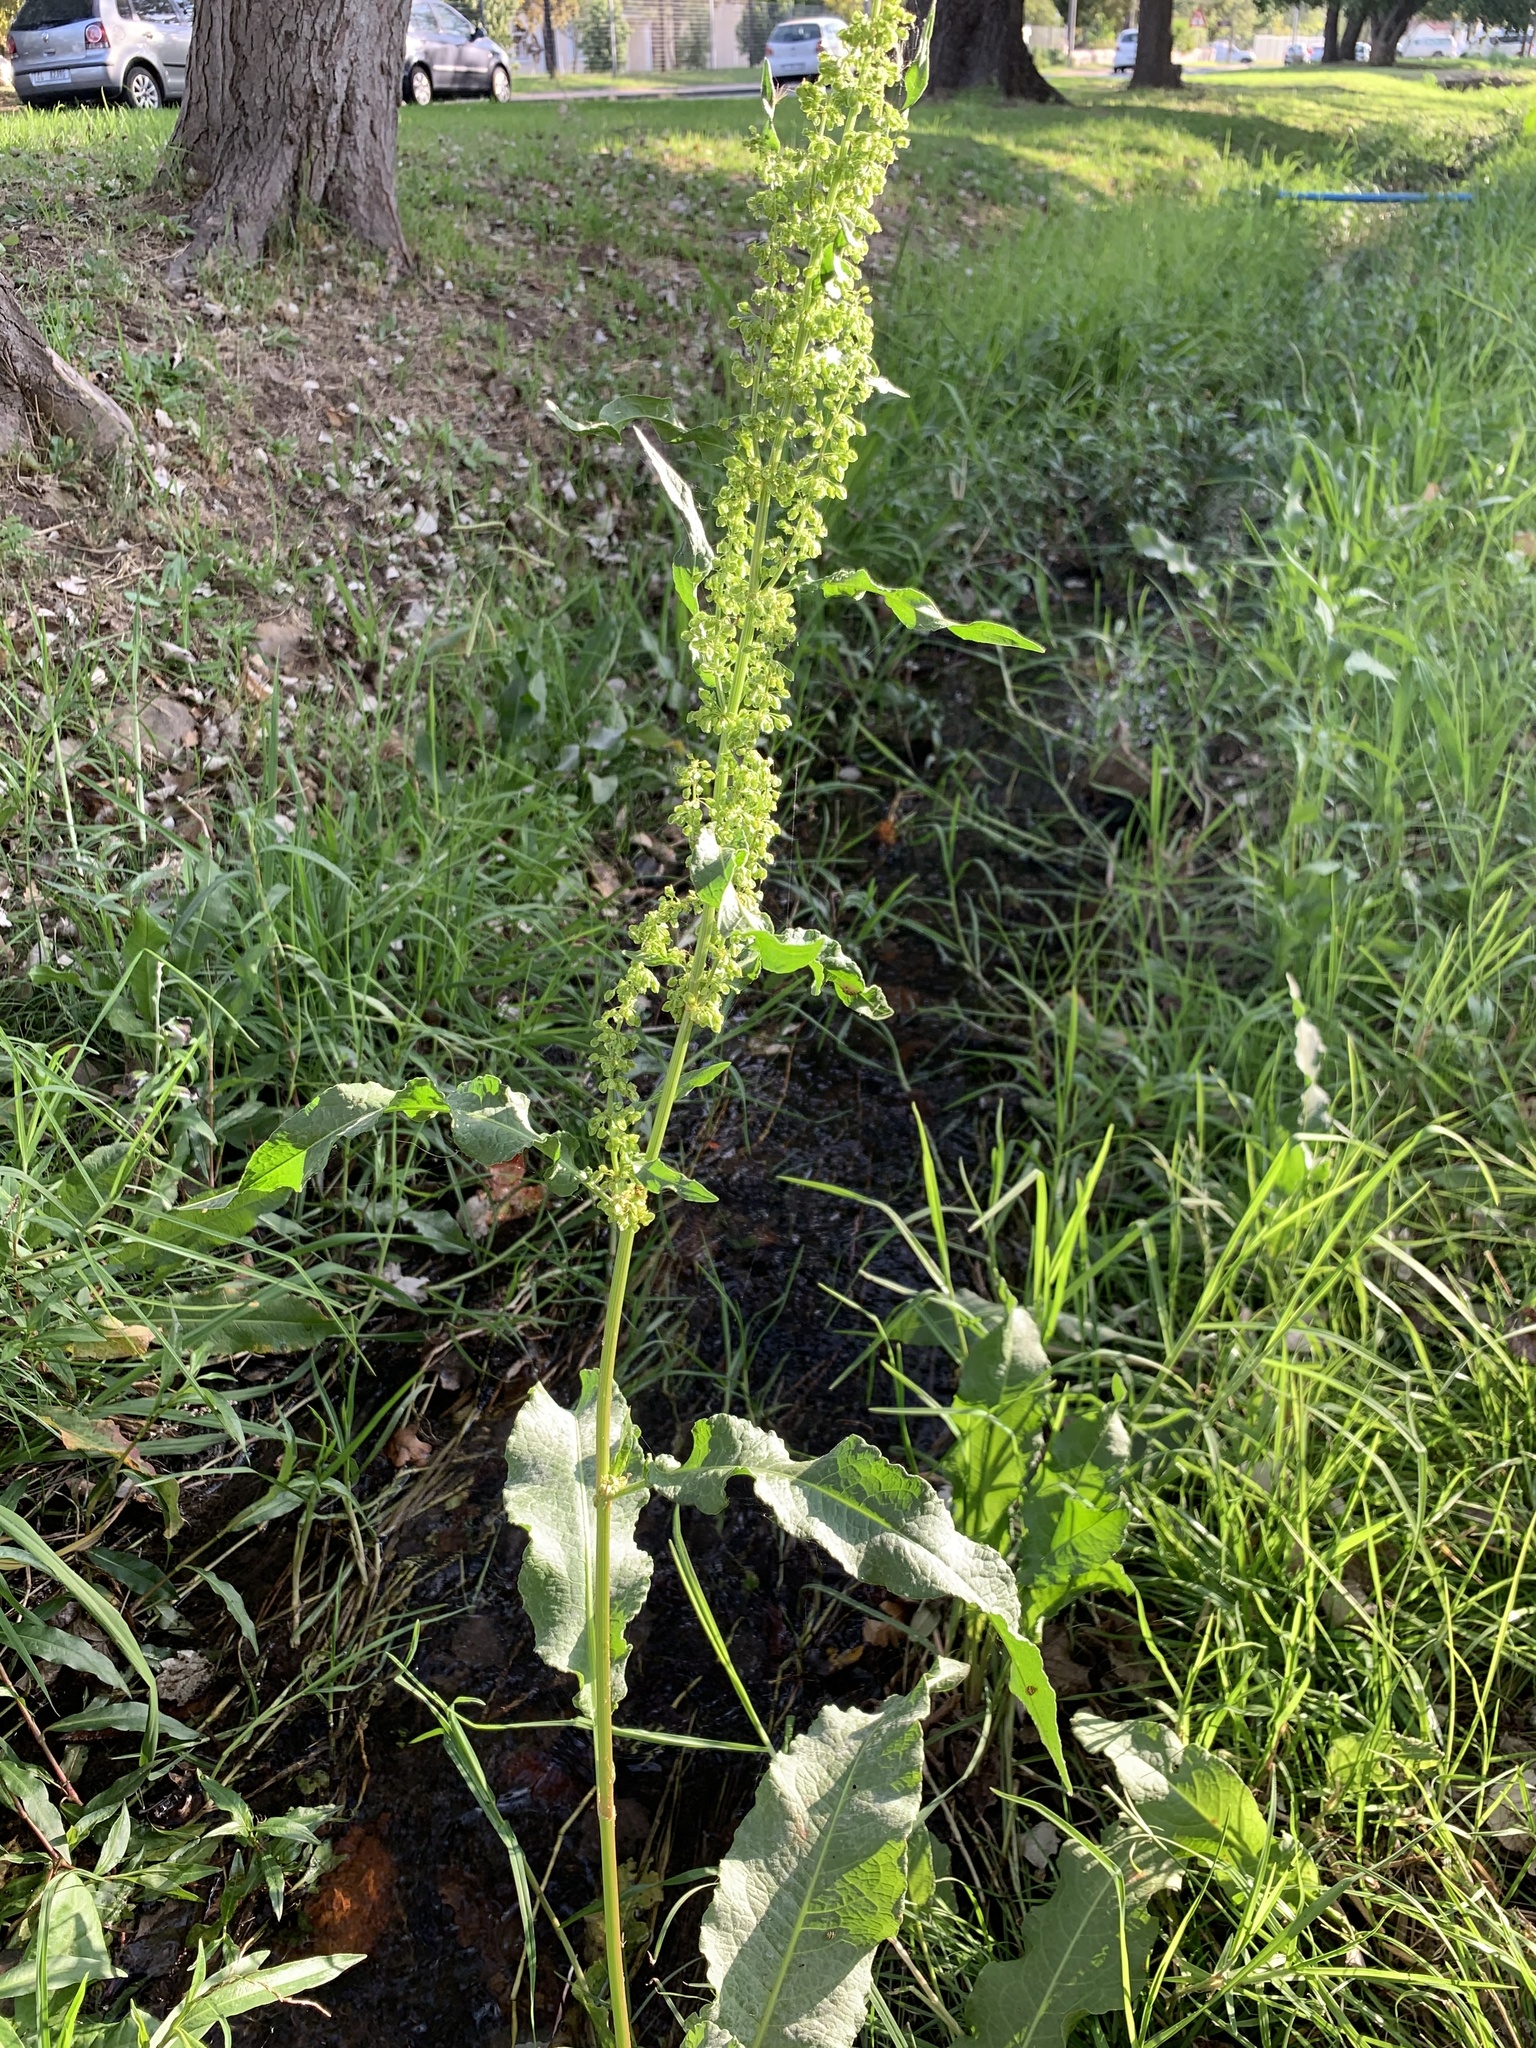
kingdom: Plantae
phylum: Tracheophyta
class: Magnoliopsida
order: Caryophyllales
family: Polygonaceae
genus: Rumex
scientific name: Rumex crispus
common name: Curled dock
